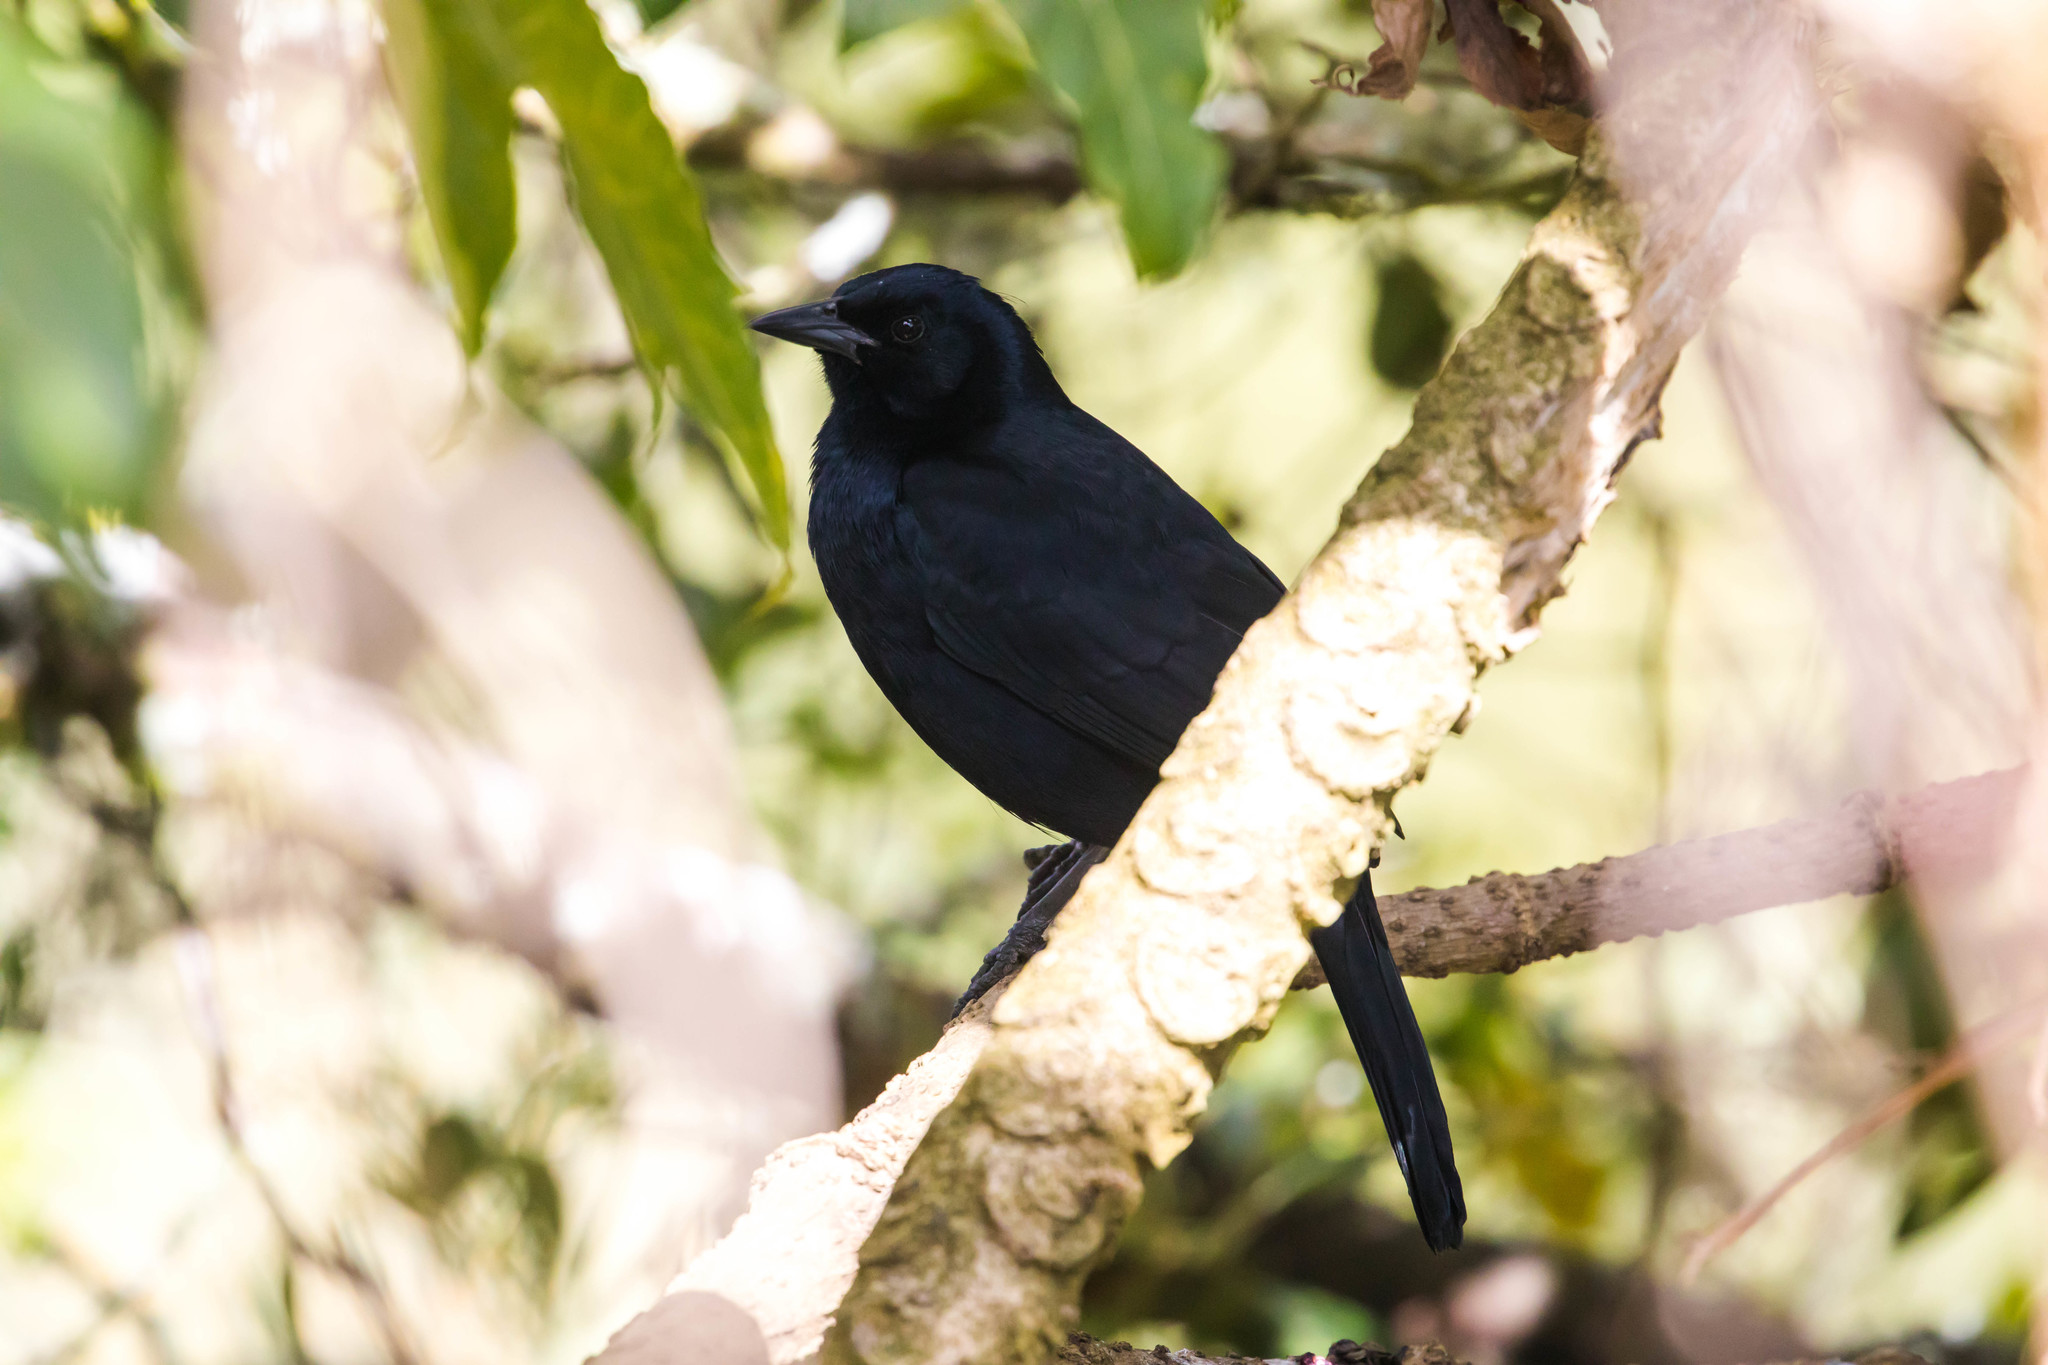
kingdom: Animalia
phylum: Chordata
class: Aves
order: Passeriformes
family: Icteridae
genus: Dives
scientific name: Dives dives
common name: Melodious blackbird
